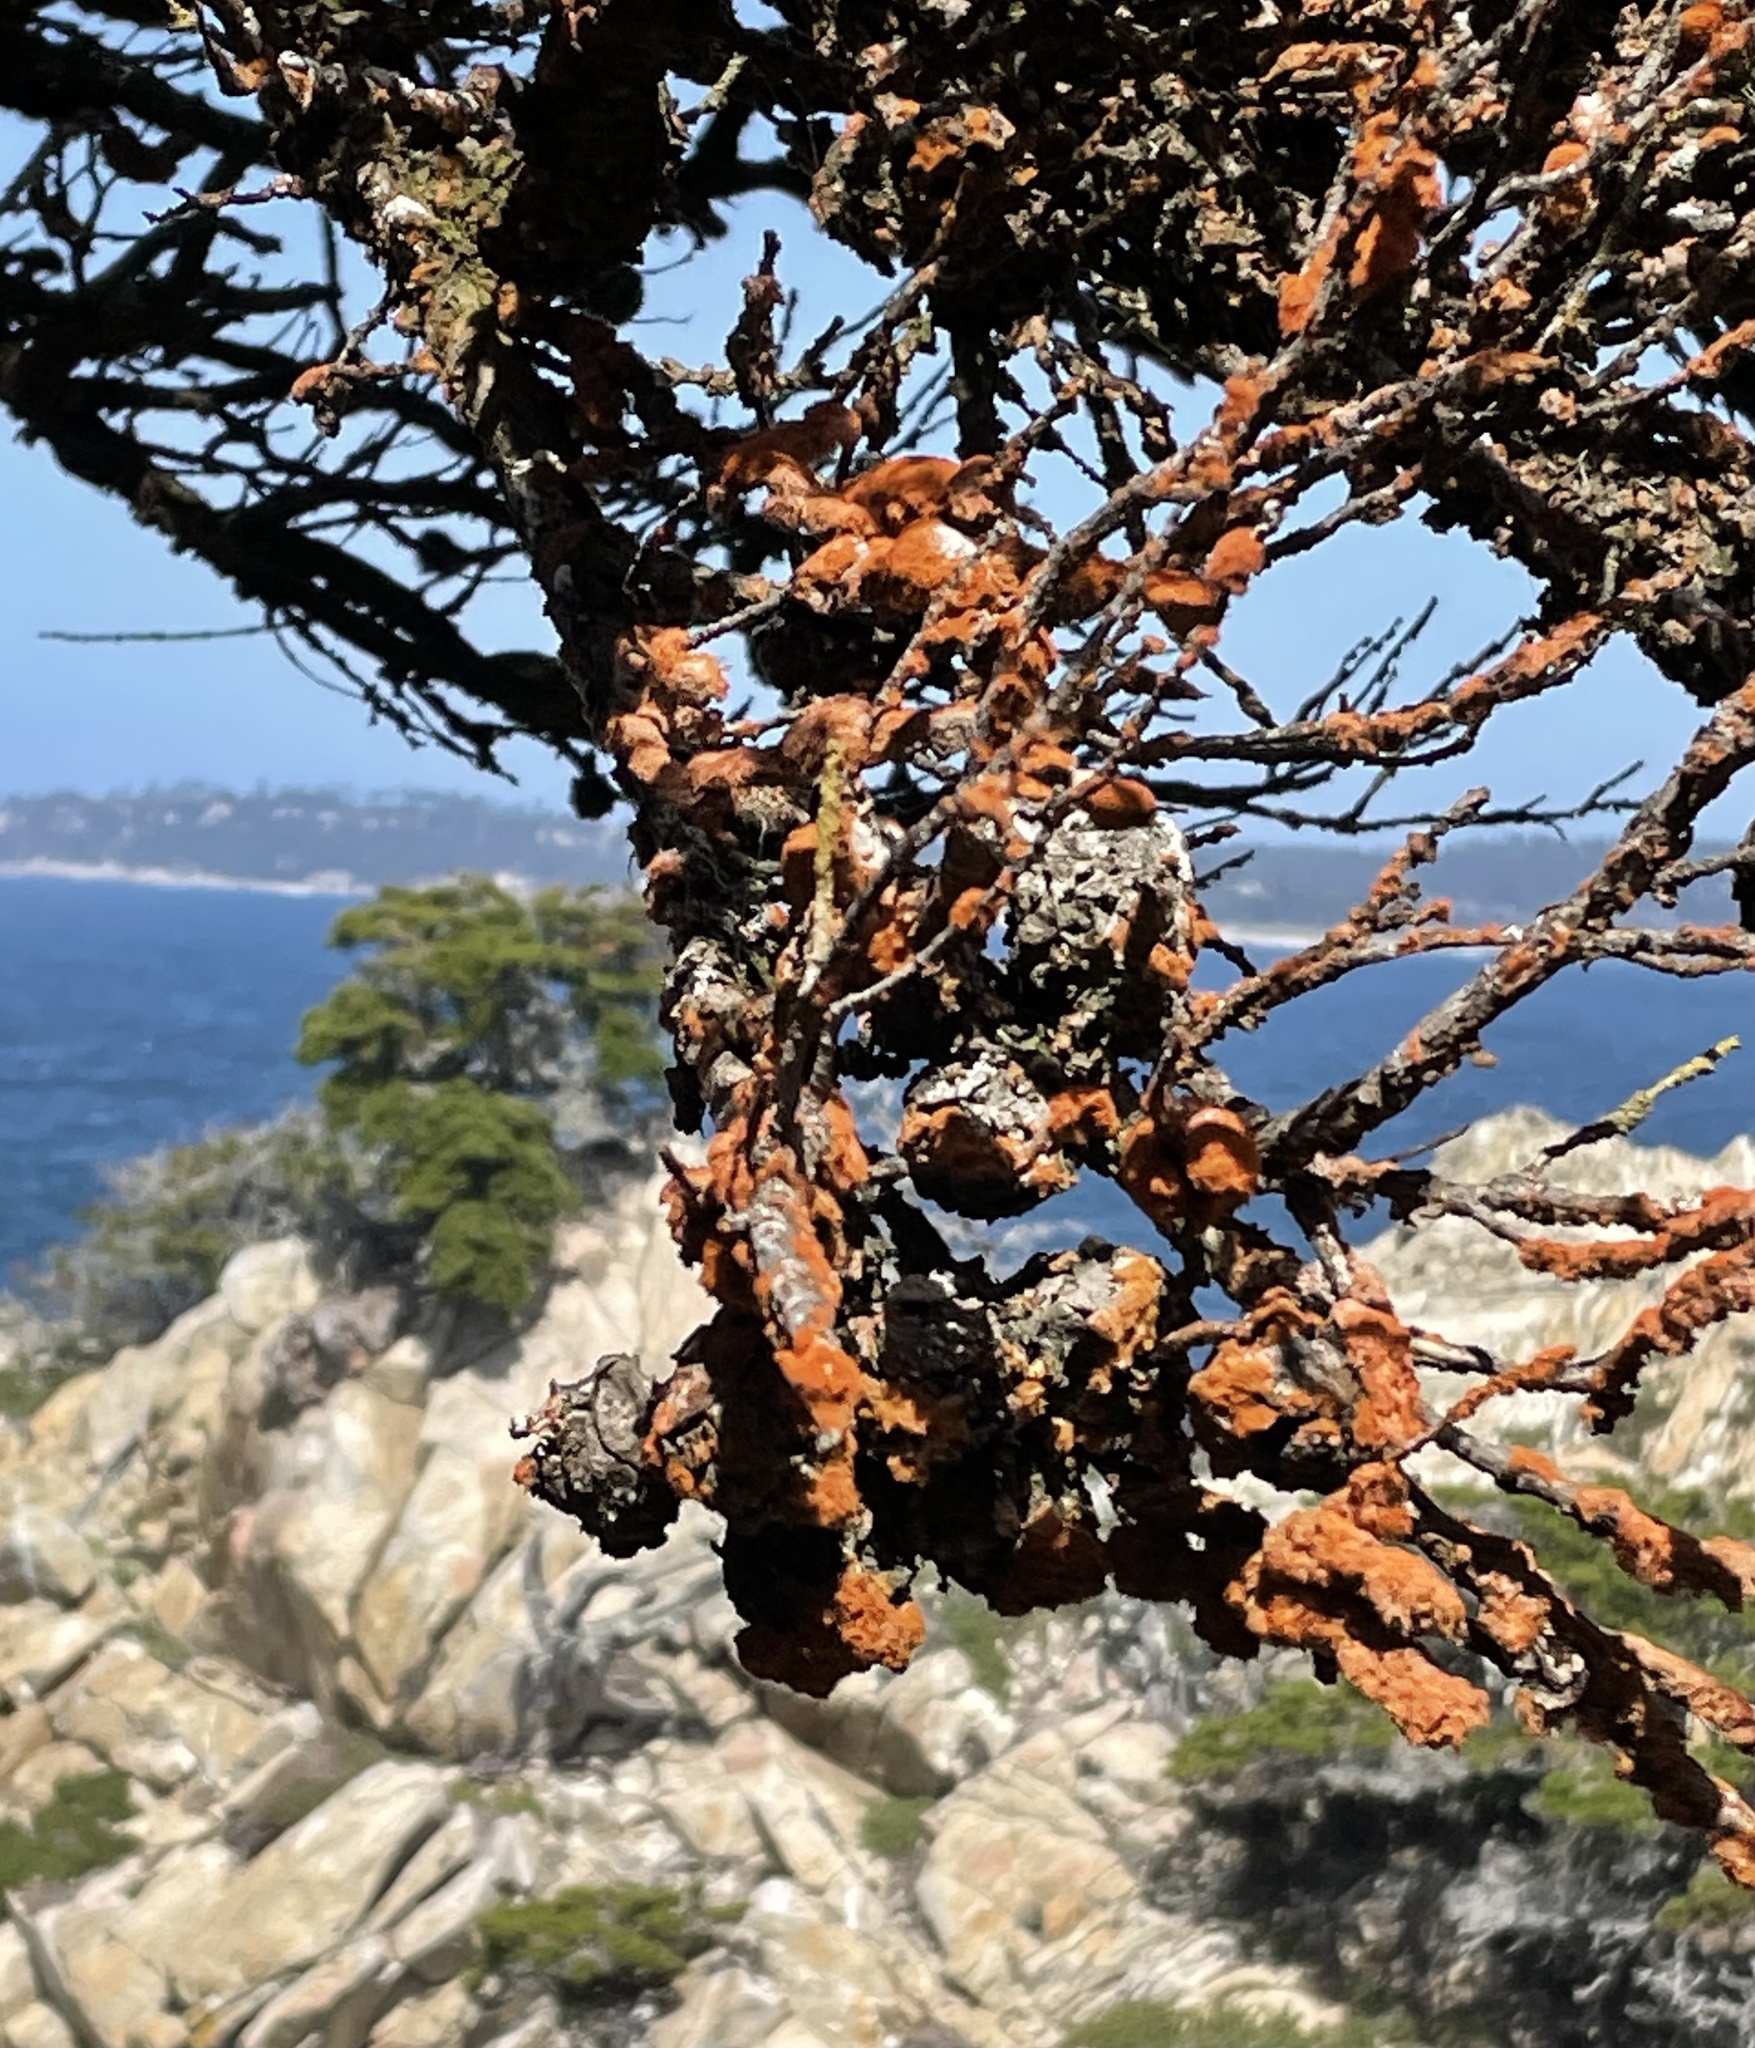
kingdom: Plantae
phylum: Chlorophyta
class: Ulvophyceae
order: Trentepohliales
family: Trentepohliaceae
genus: Trentepohlia
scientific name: Trentepohlia aurea
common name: Orange rock hair
